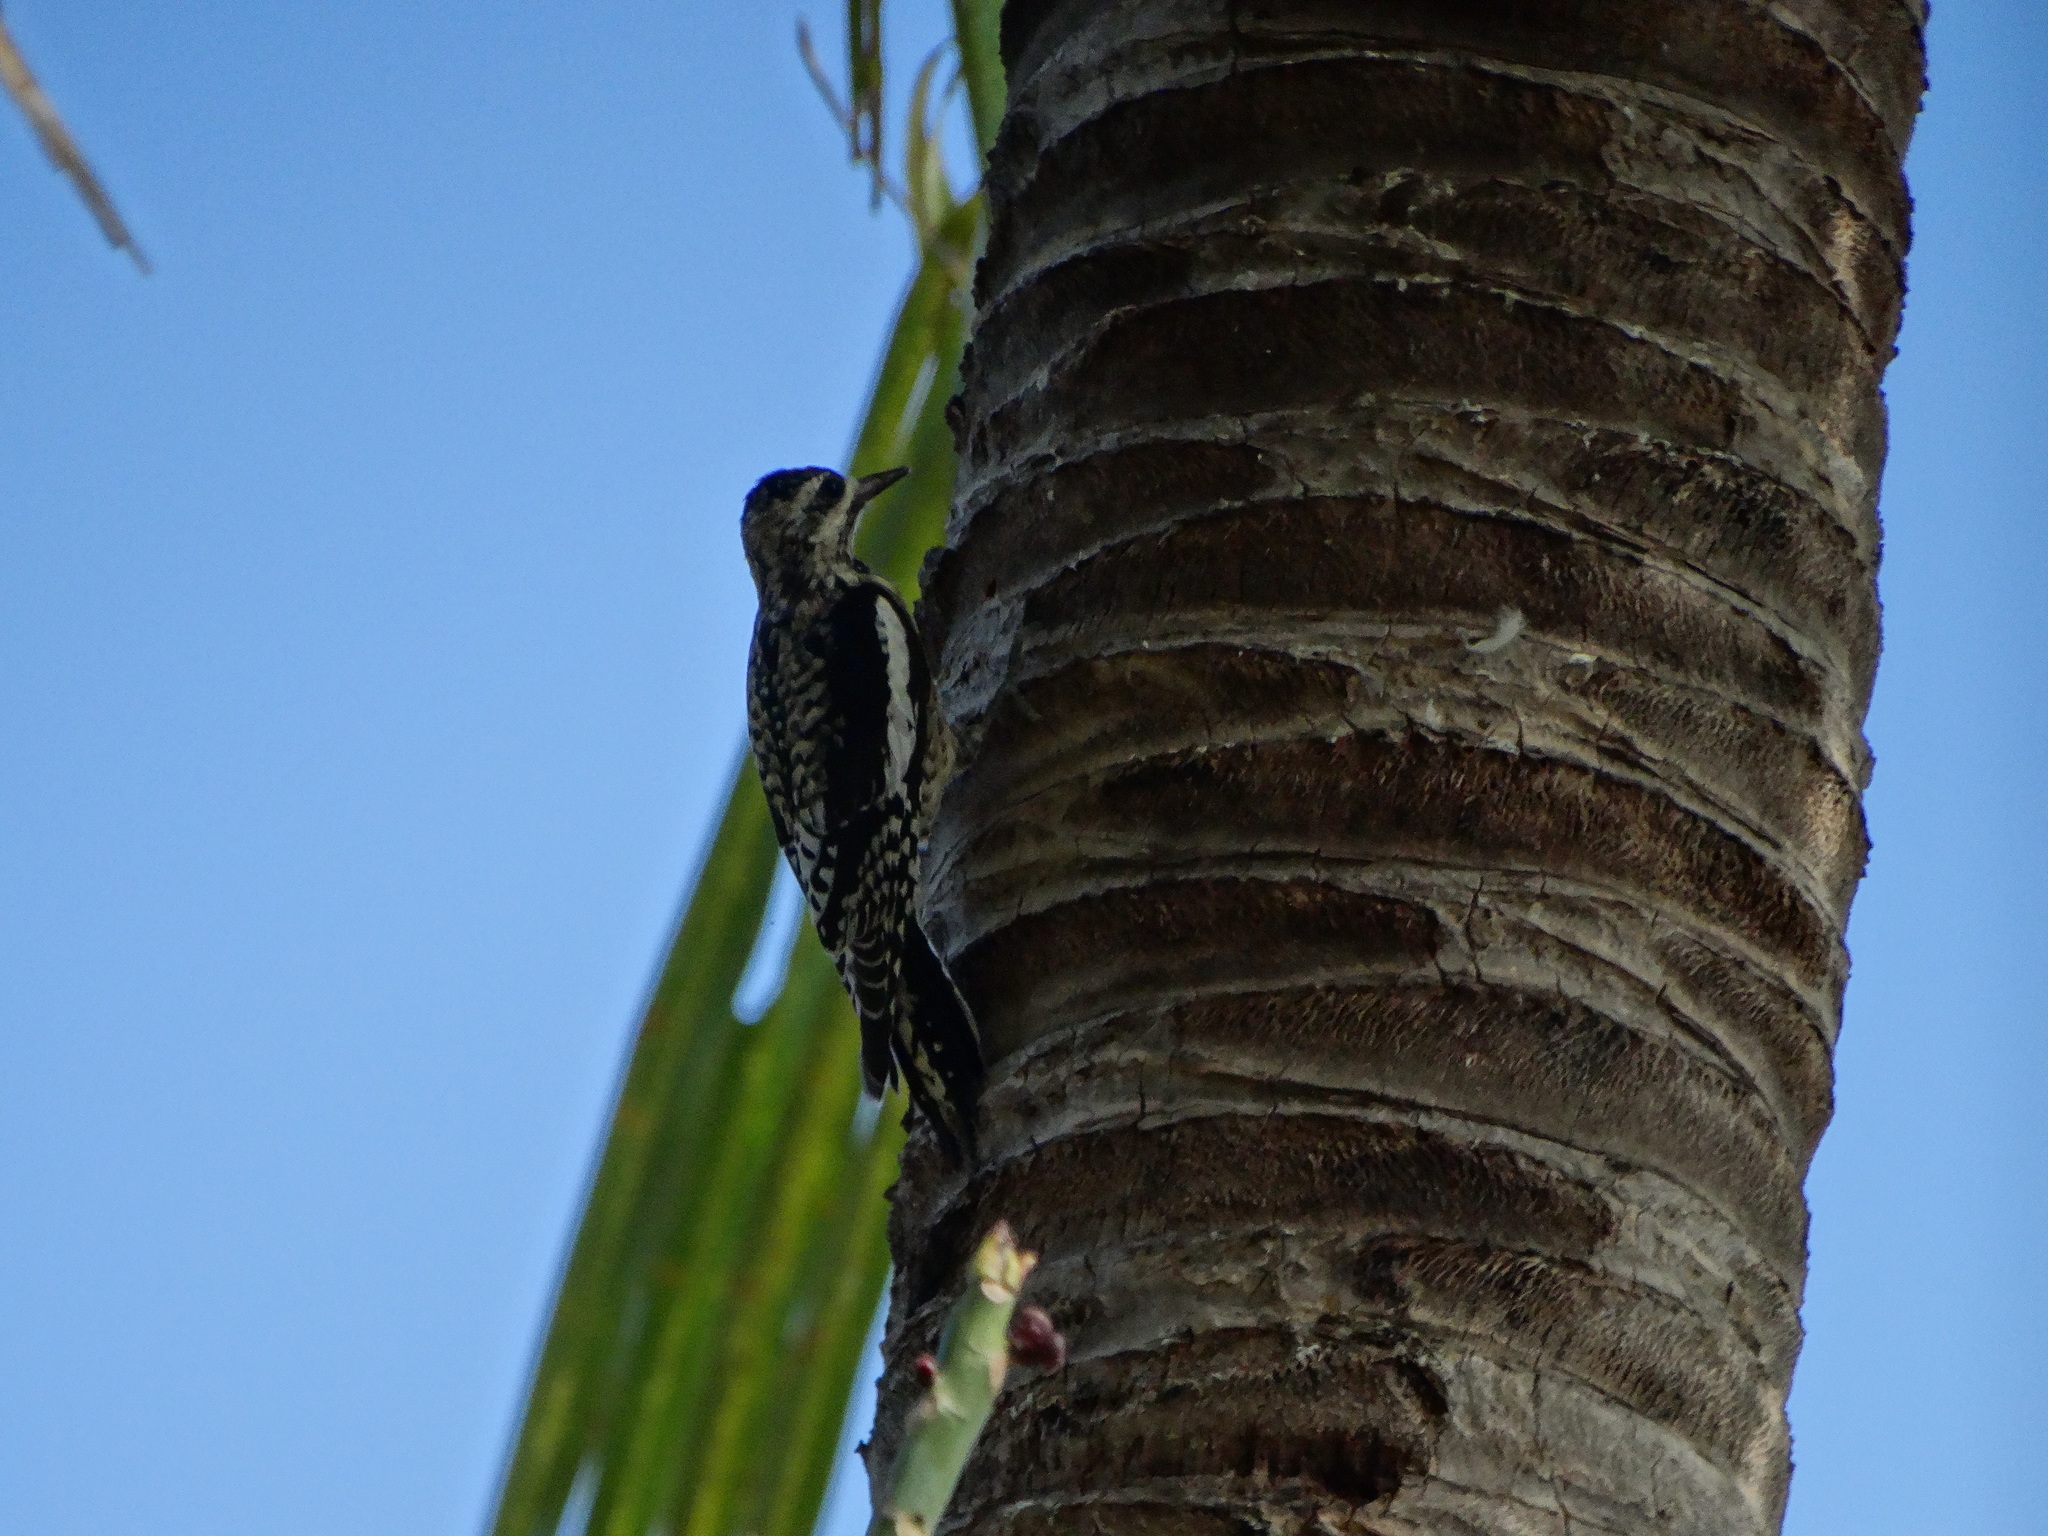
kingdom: Animalia
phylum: Chordata
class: Aves
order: Piciformes
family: Picidae
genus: Sphyrapicus
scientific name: Sphyrapicus varius
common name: Yellow-bellied sapsucker
